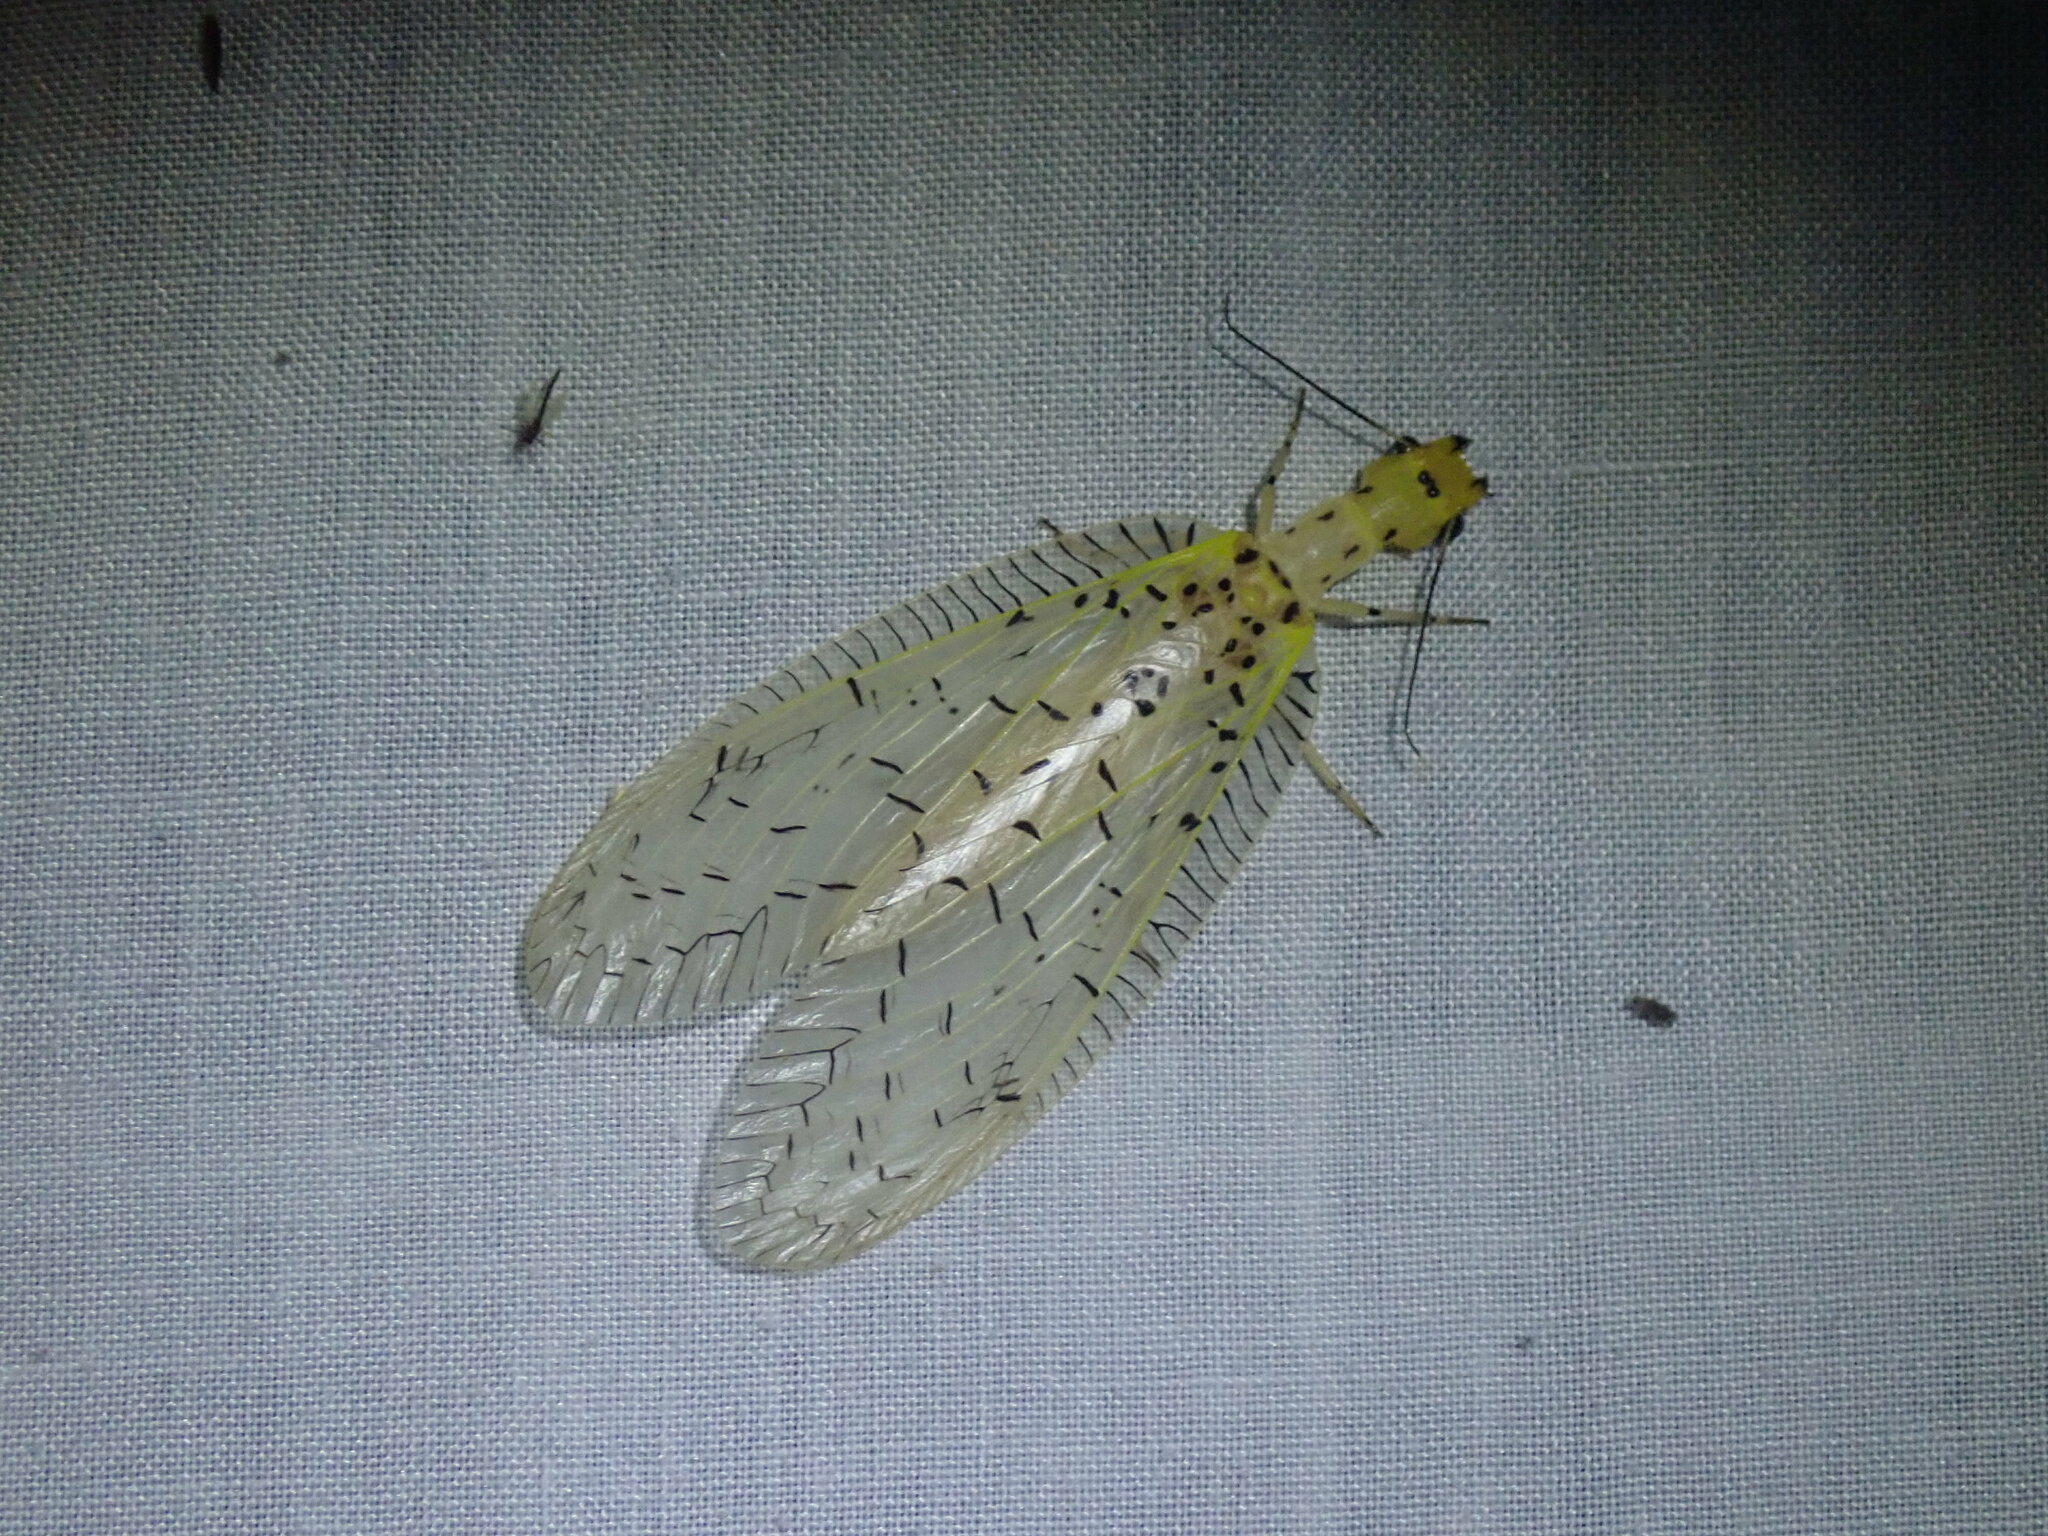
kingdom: Animalia
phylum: Arthropoda
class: Insecta
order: Megaloptera
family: Corydalidae
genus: Chloronia
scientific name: Chloronia mexicana
